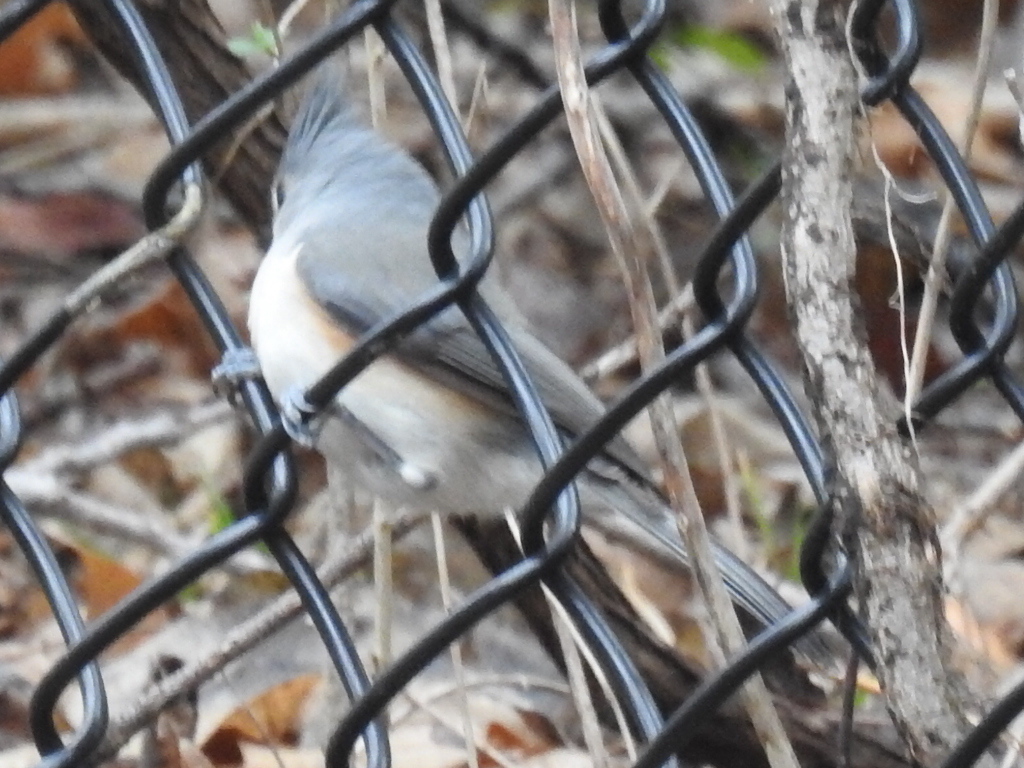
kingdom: Animalia
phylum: Chordata
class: Aves
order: Passeriformes
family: Paridae
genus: Baeolophus
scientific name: Baeolophus bicolor
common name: Tufted titmouse
